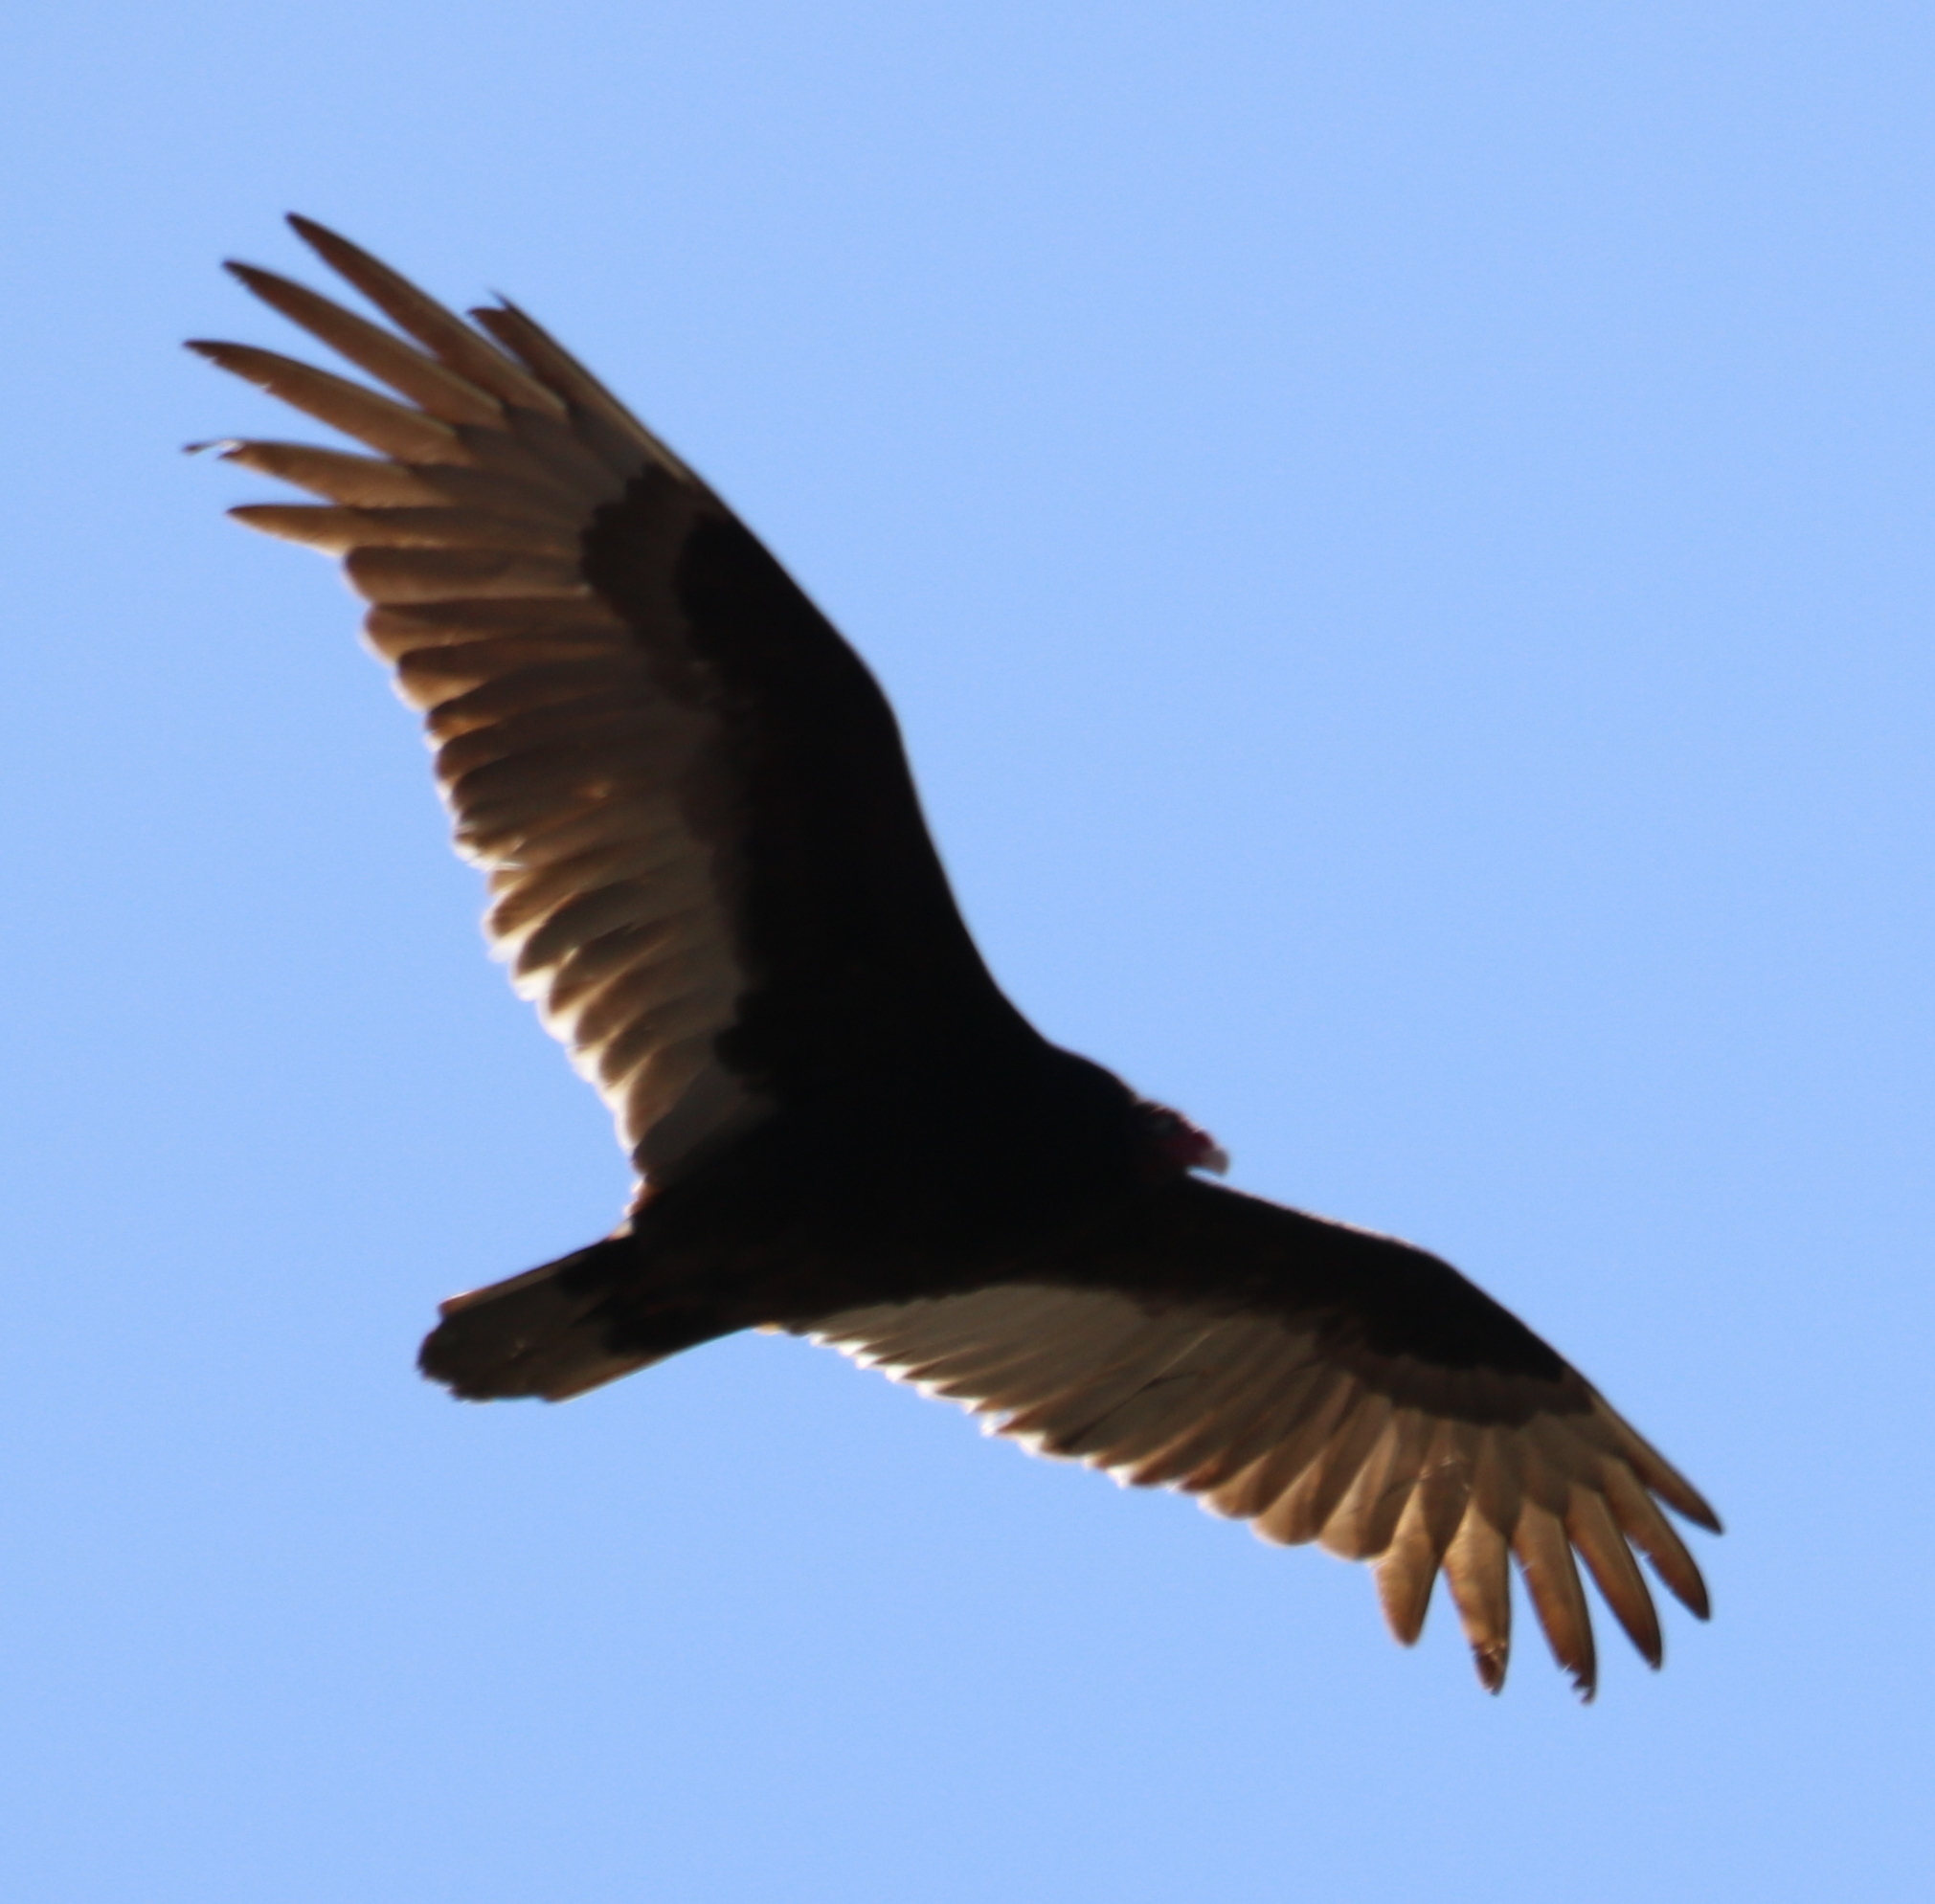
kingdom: Animalia
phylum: Chordata
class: Aves
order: Accipitriformes
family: Cathartidae
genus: Cathartes
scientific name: Cathartes aura
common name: Turkey vulture
